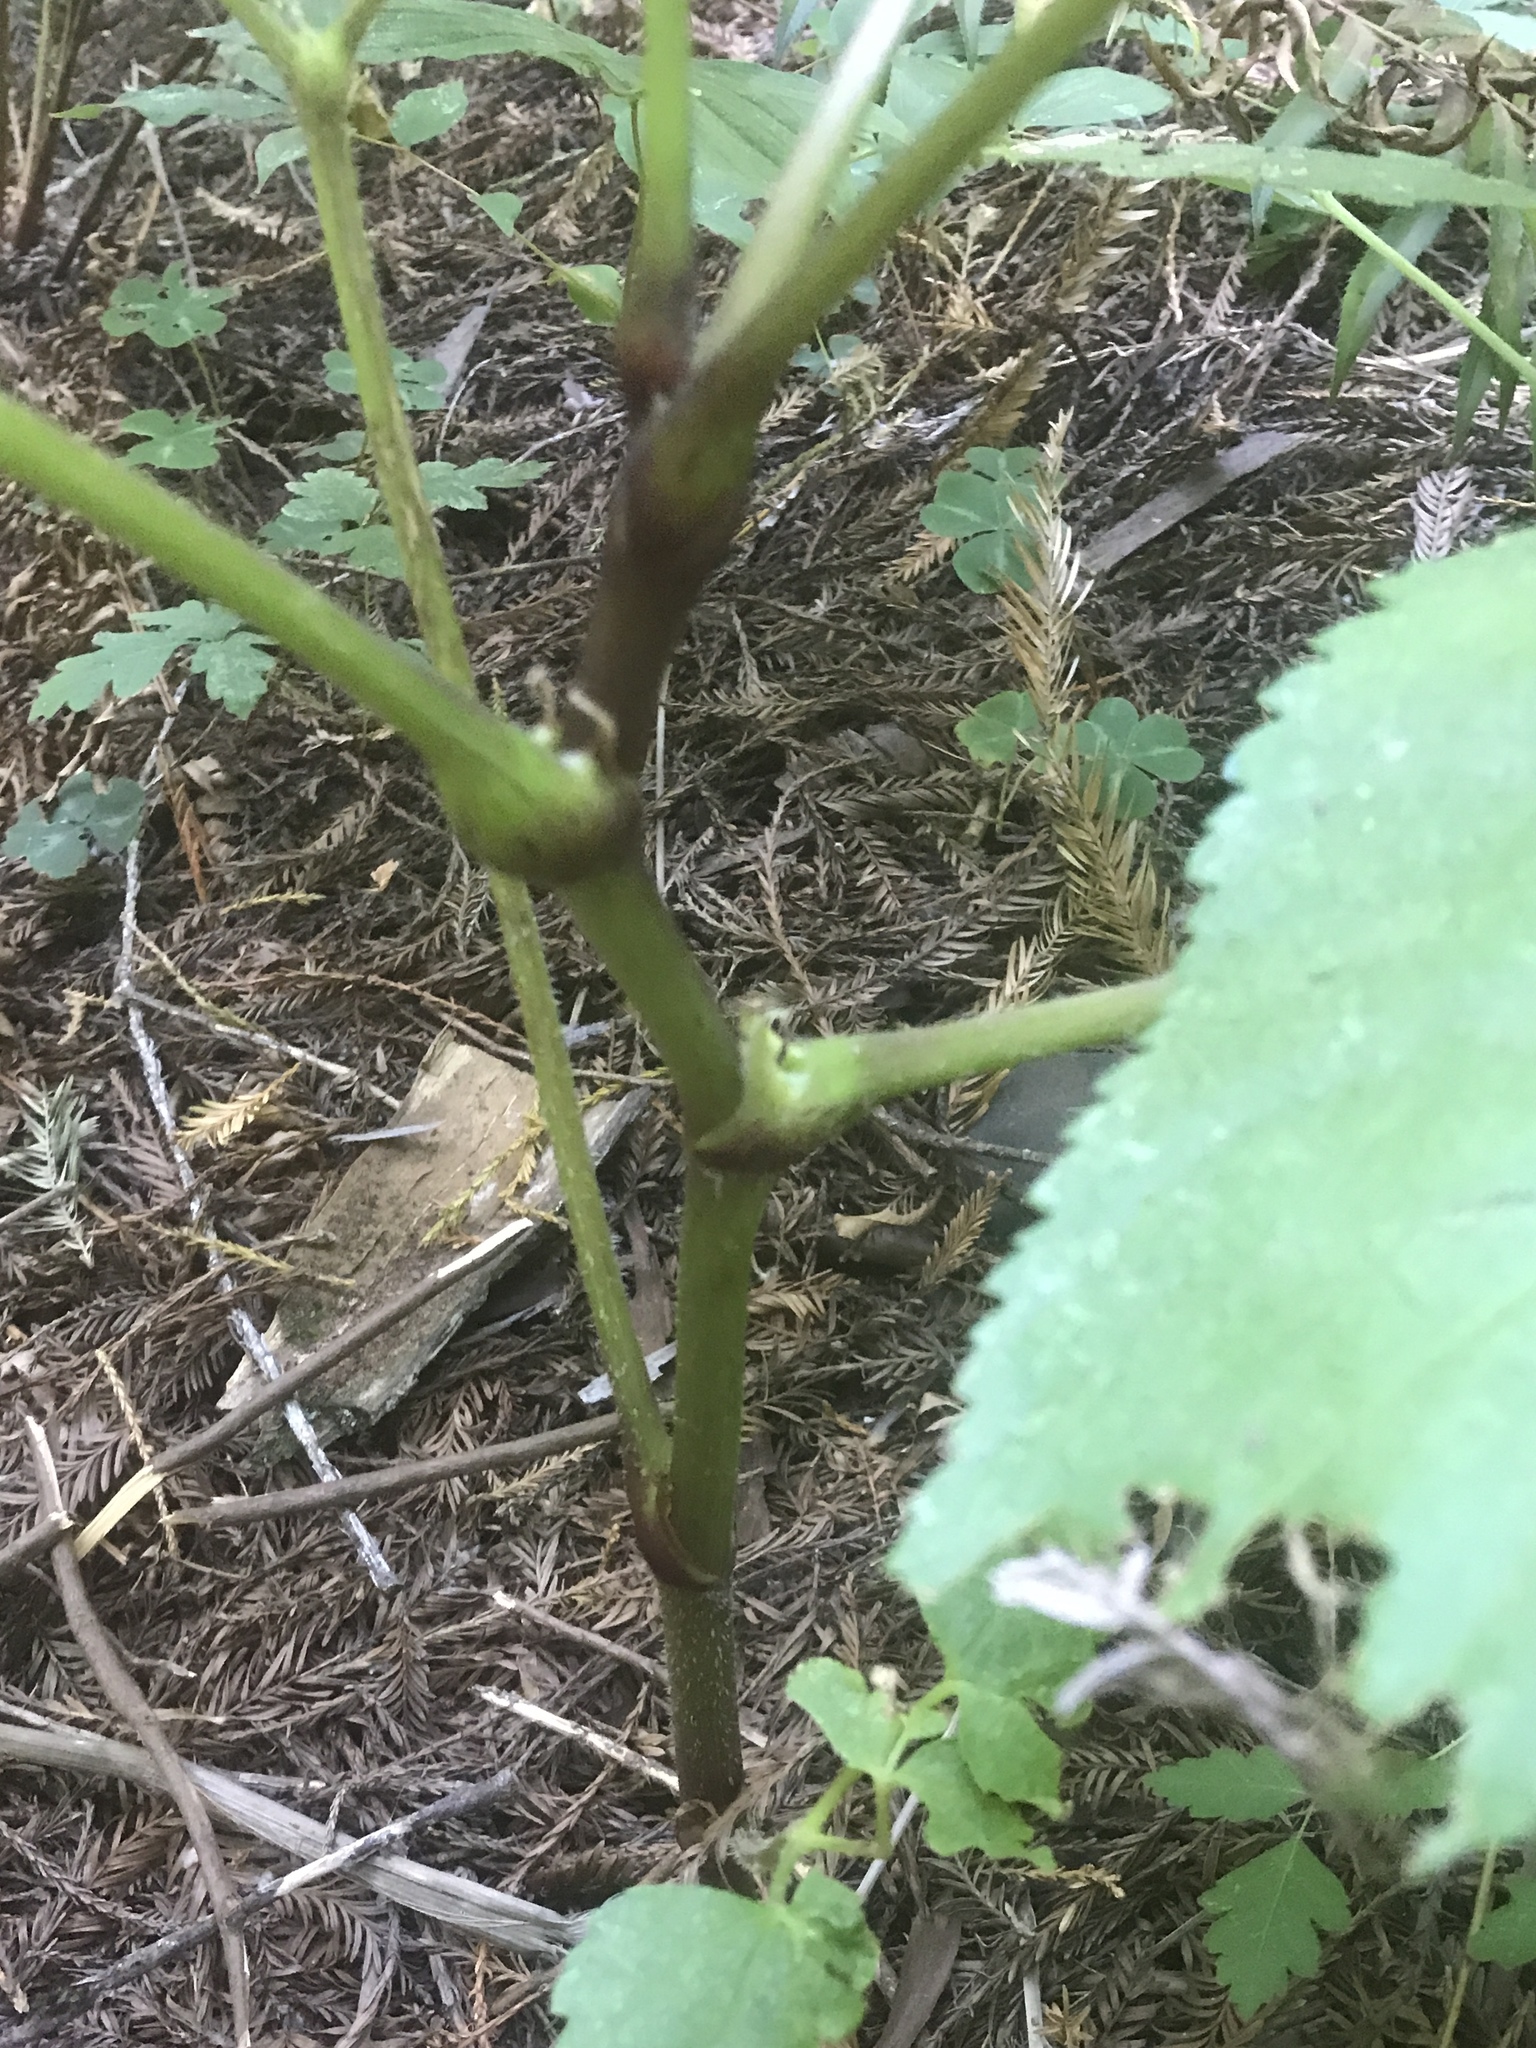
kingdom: Plantae
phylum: Tracheophyta
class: Magnoliopsida
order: Apiales
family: Araliaceae
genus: Aralia
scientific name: Aralia californica
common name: California-ginseng
